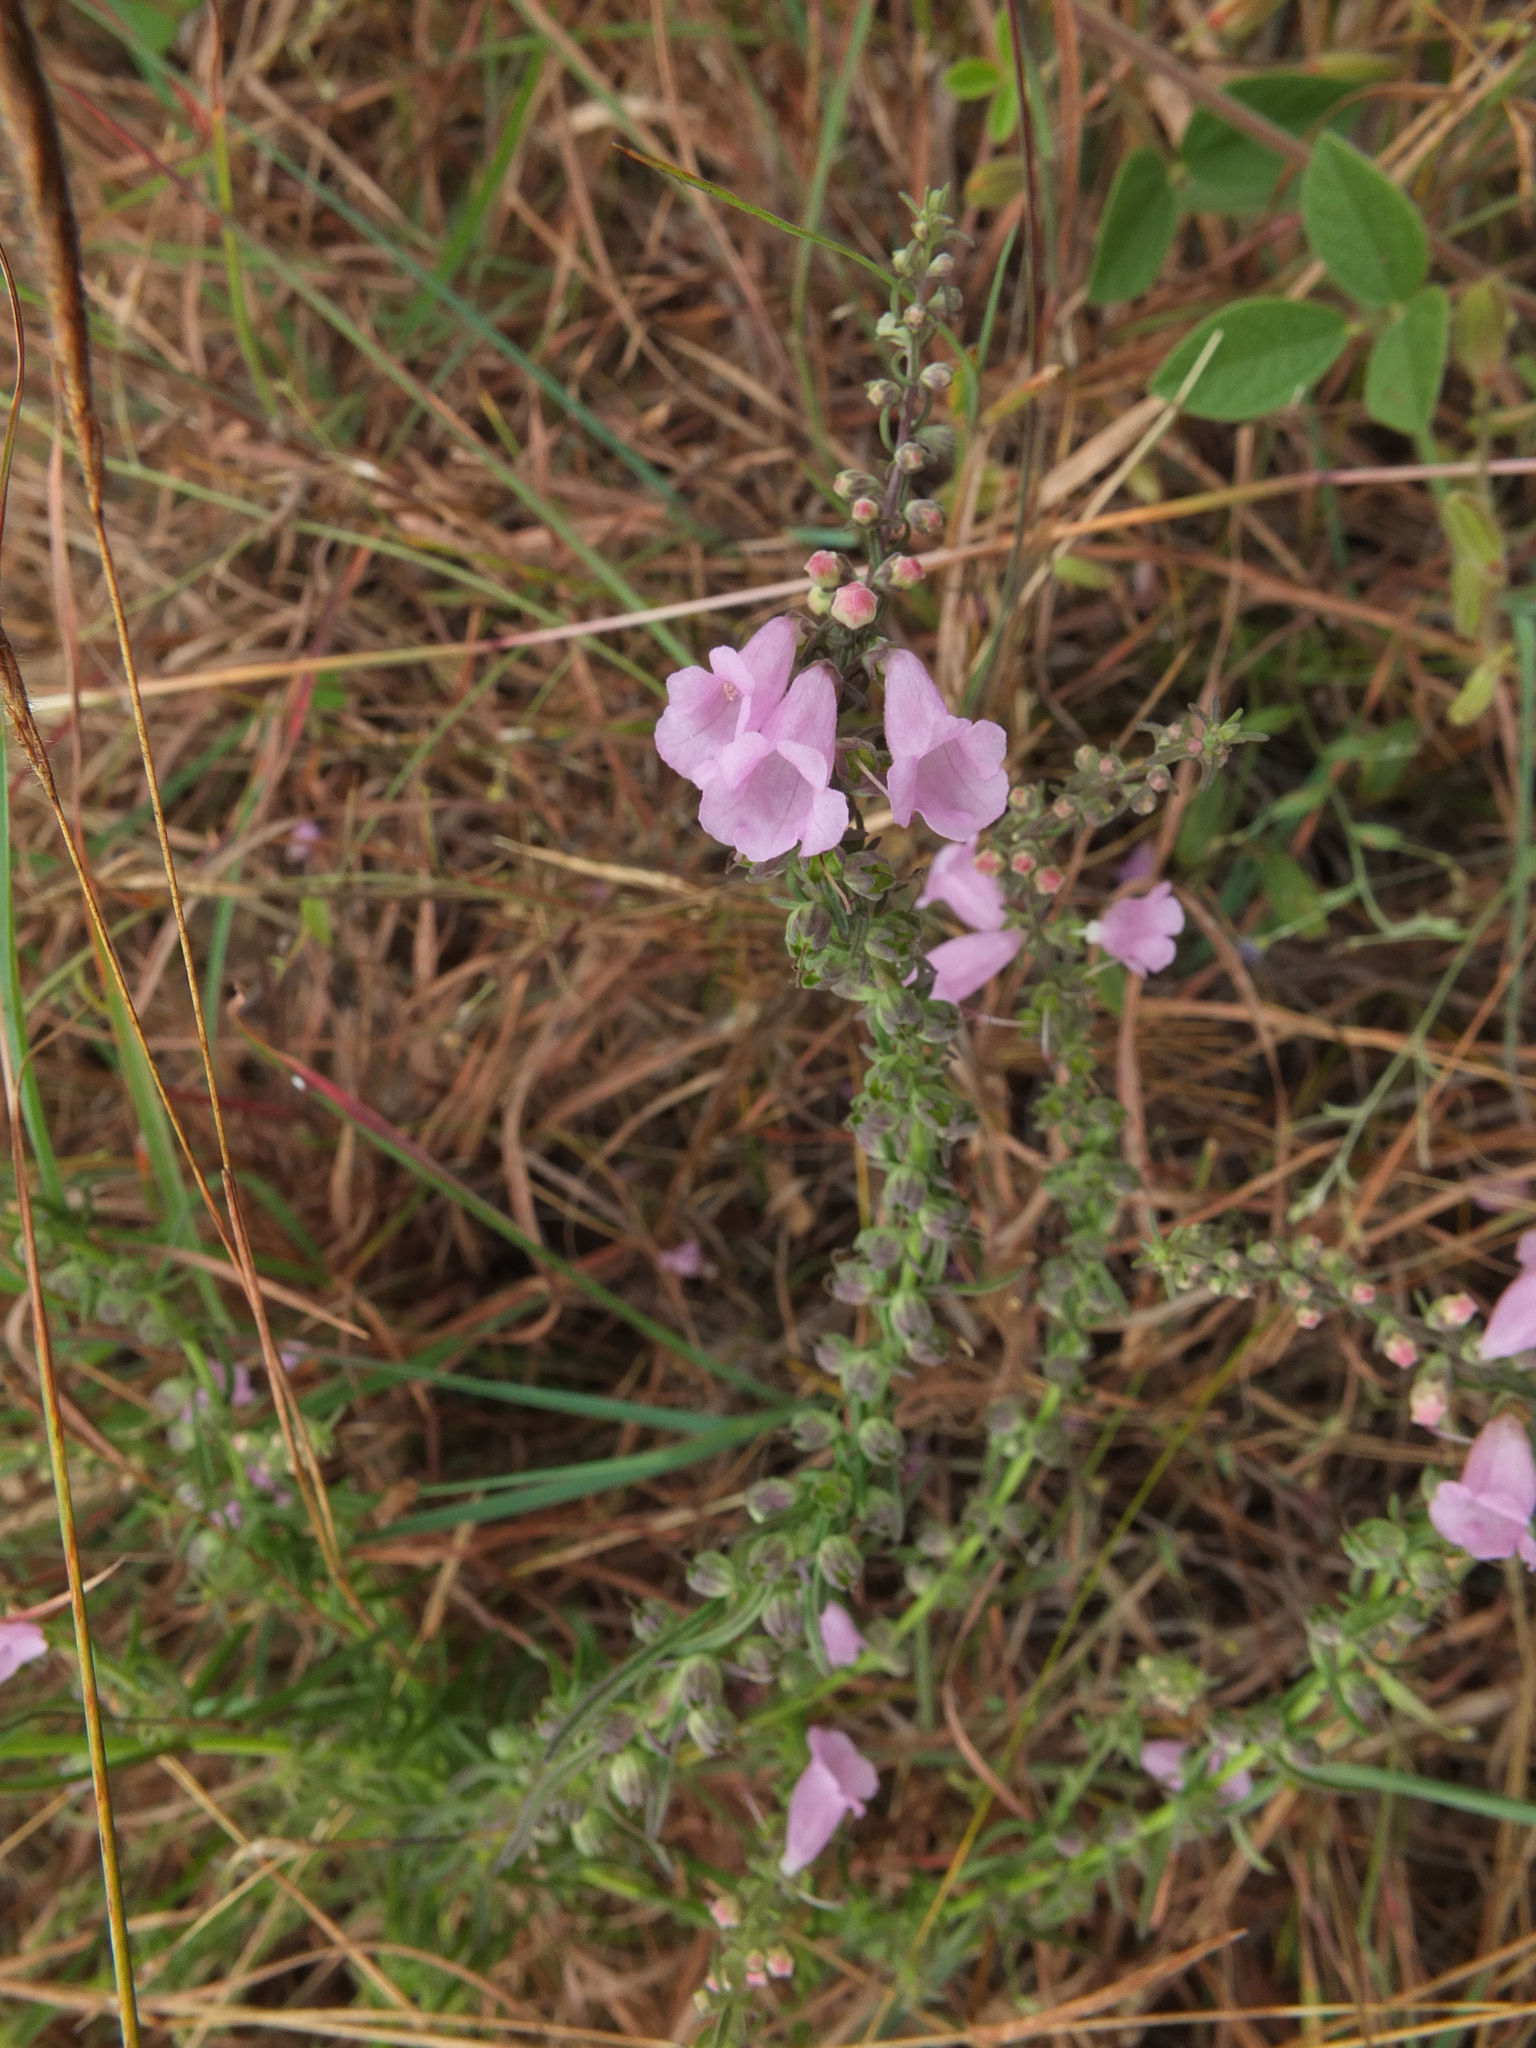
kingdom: Plantae
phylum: Tracheophyta
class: Magnoliopsida
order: Lamiales
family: Orobanchaceae
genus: Micrargeria
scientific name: Micrargeria wightii
